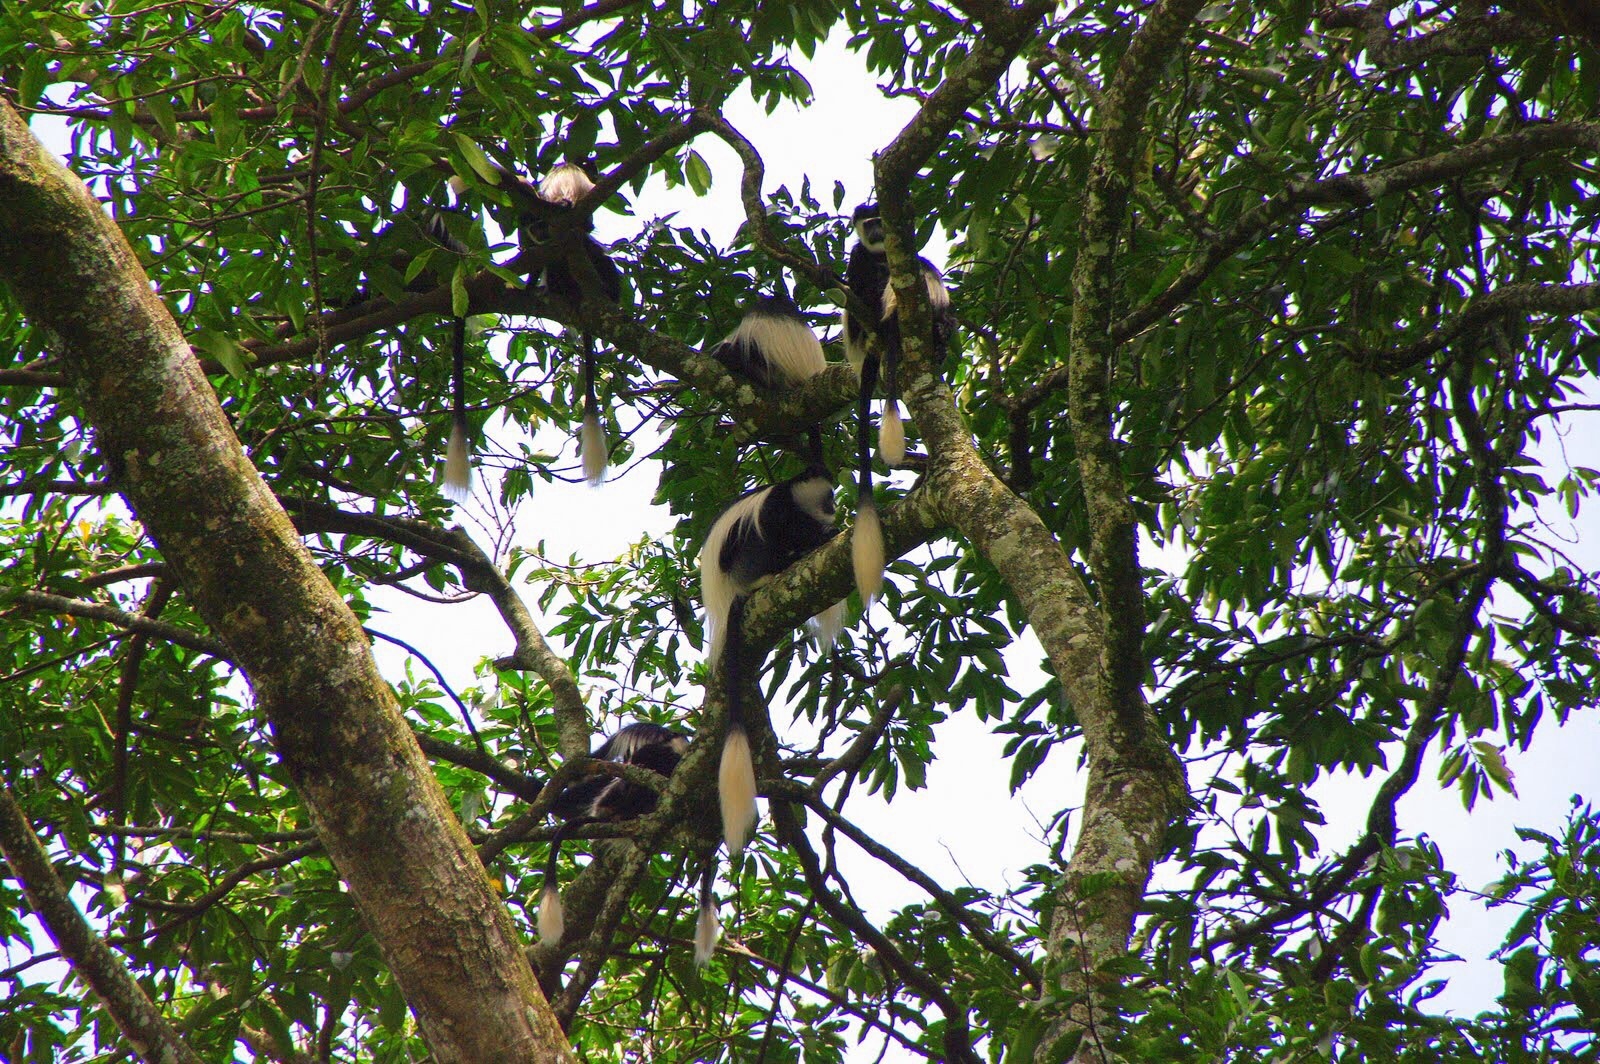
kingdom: Animalia
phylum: Chordata
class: Mammalia
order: Primates
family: Cercopithecidae
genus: Colobus
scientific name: Colobus guereza
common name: Mantled guereza
